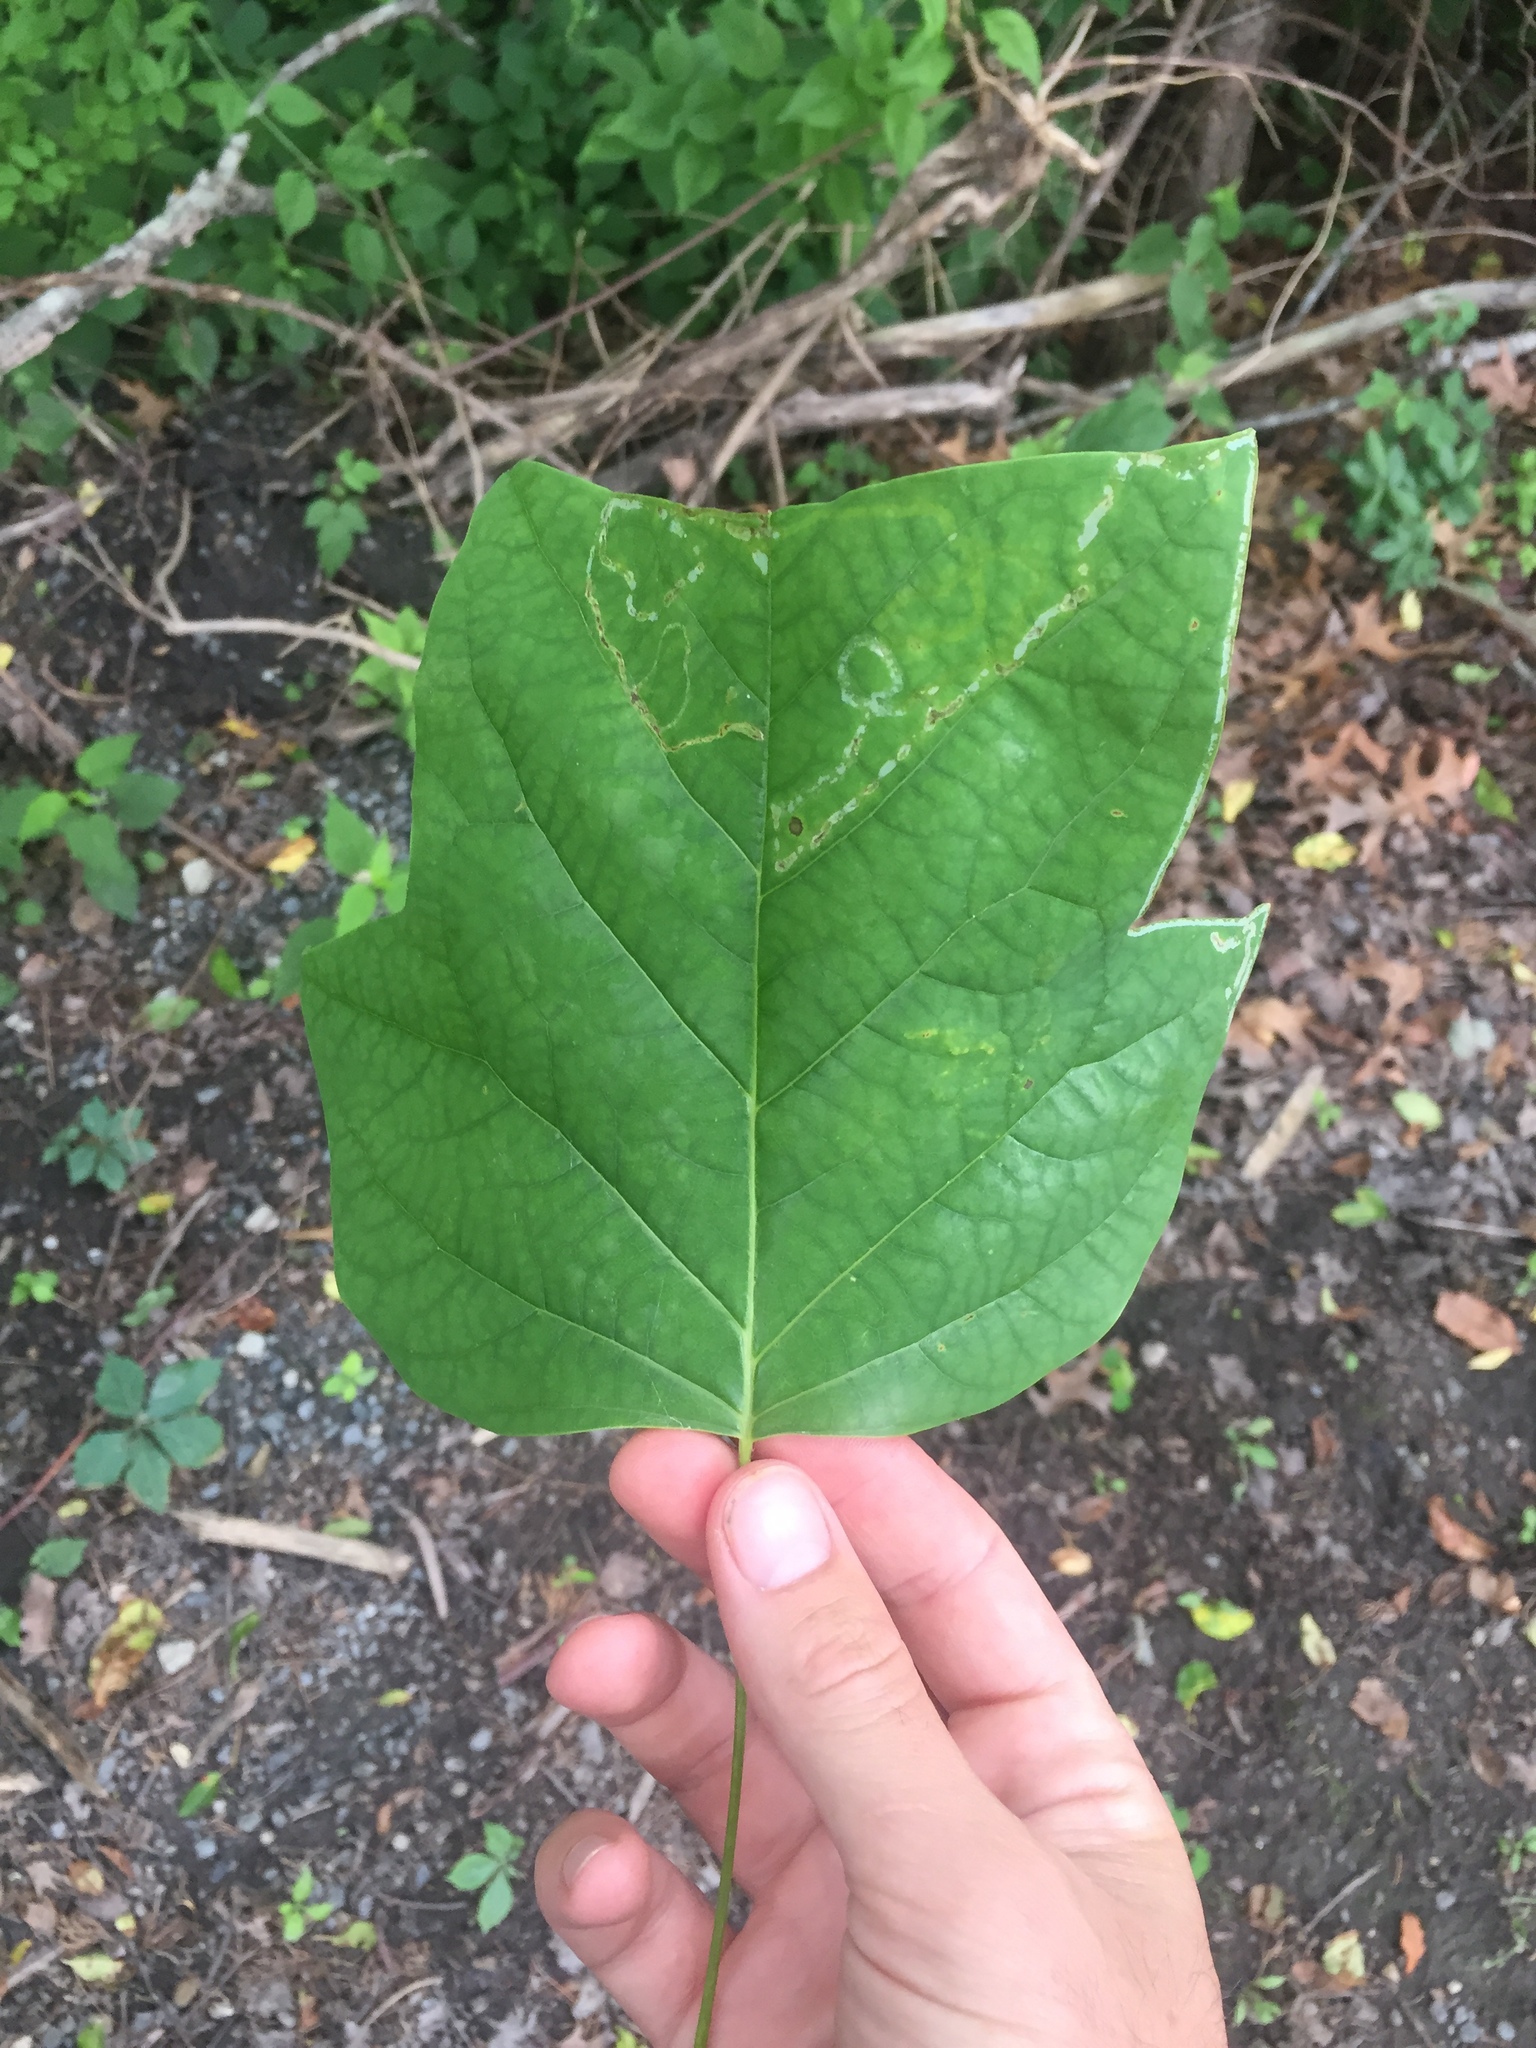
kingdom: Plantae
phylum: Tracheophyta
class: Magnoliopsida
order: Magnoliales
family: Magnoliaceae
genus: Liriodendron
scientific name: Liriodendron tulipifera
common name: Tulip tree
